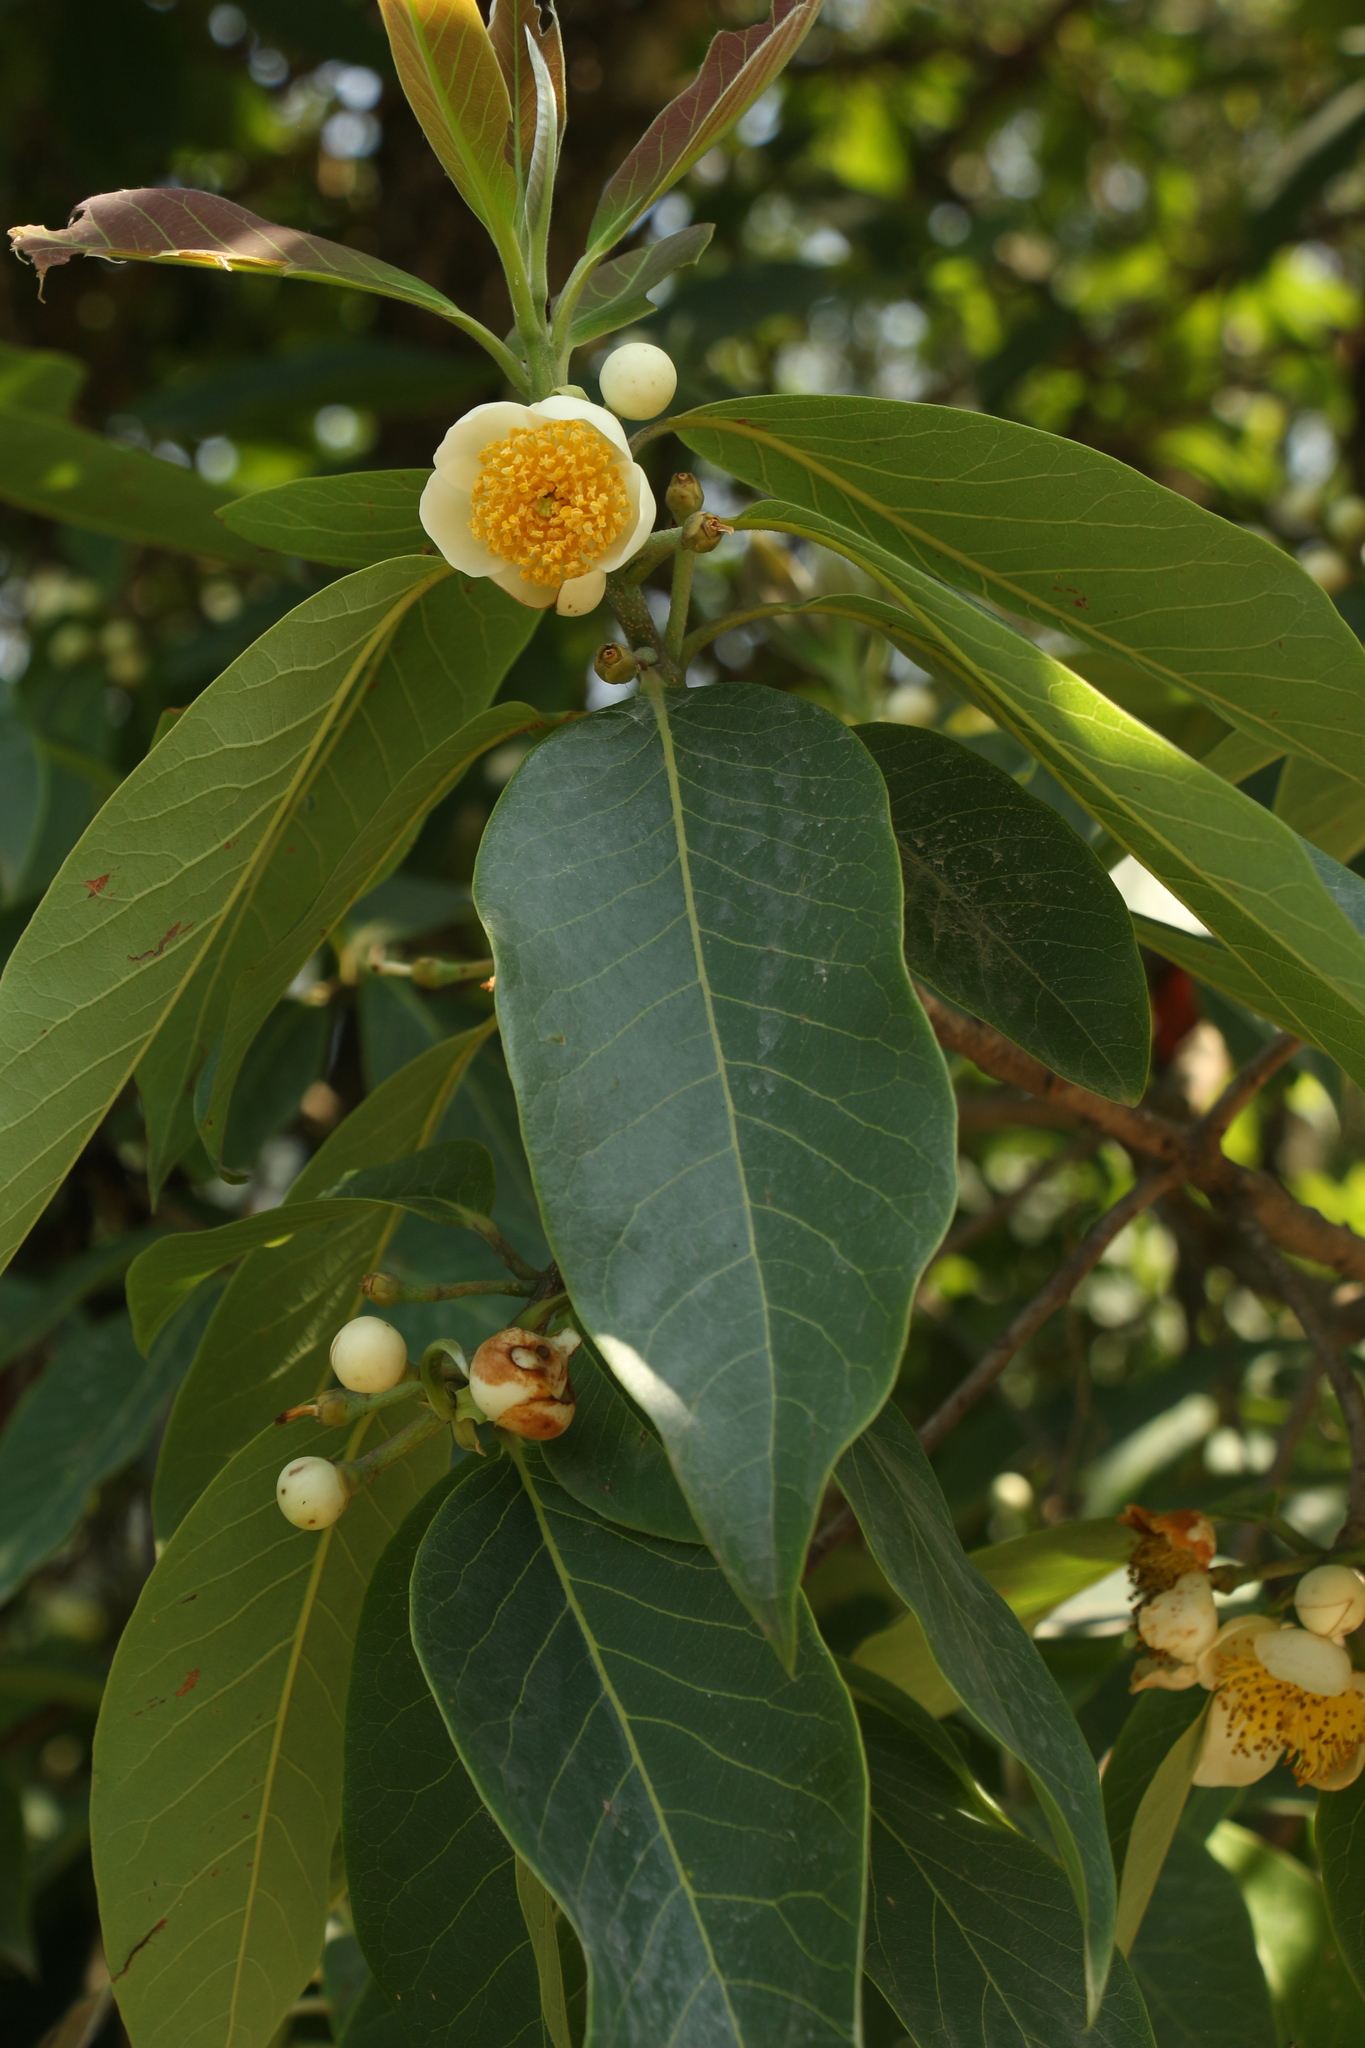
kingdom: Plantae
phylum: Tracheophyta
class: Magnoliopsida
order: Ericales
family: Theaceae
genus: Schima
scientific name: Schima wallichii
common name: Schima
